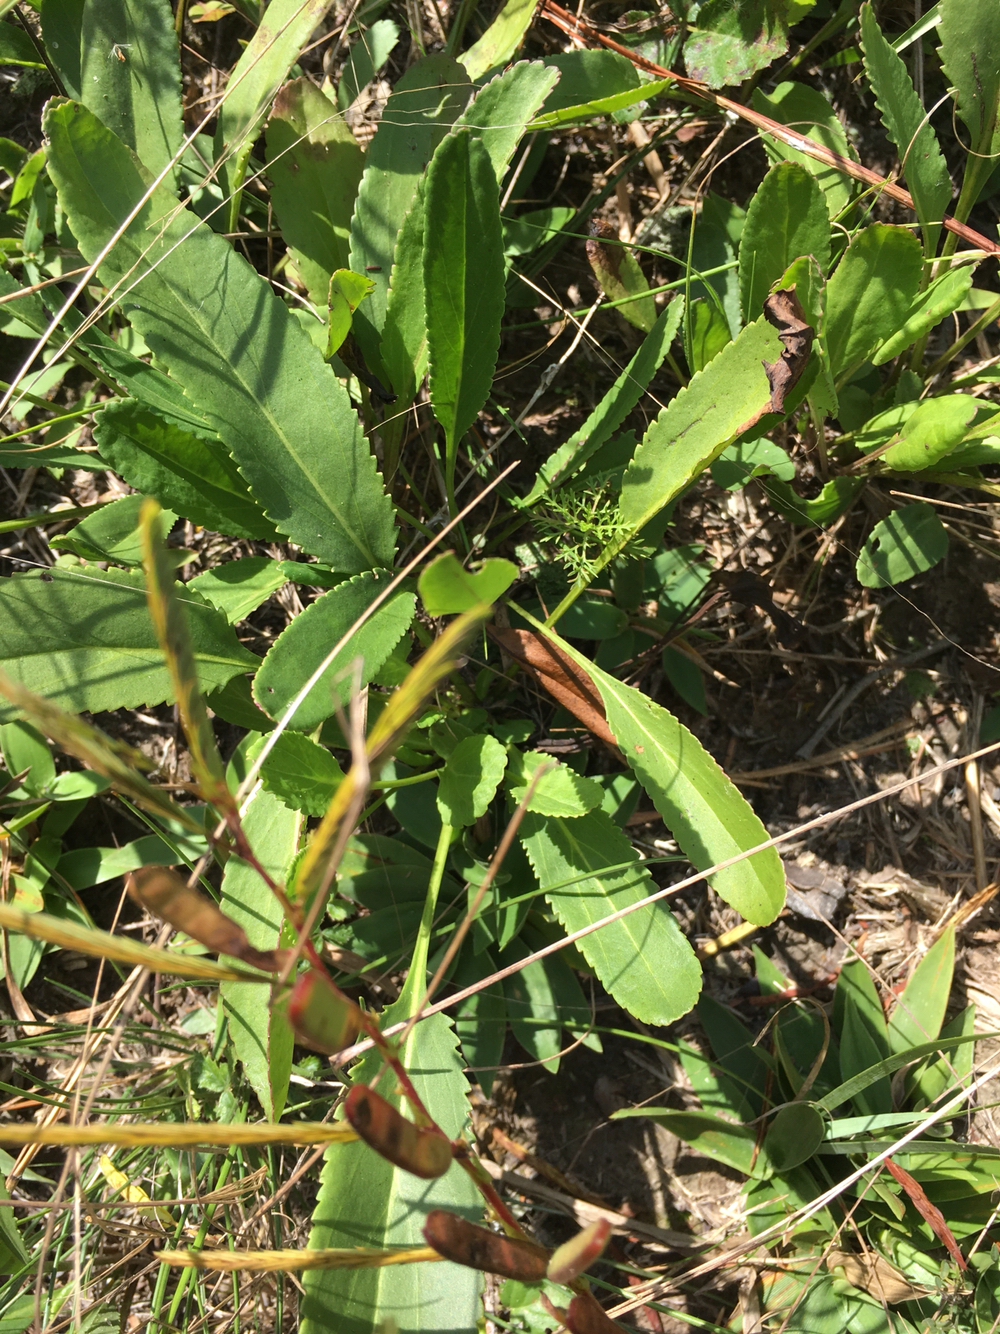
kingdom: Plantae
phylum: Tracheophyta
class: Magnoliopsida
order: Asterales
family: Asteraceae
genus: Packera
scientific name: Packera anonyma
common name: Small ragwort
